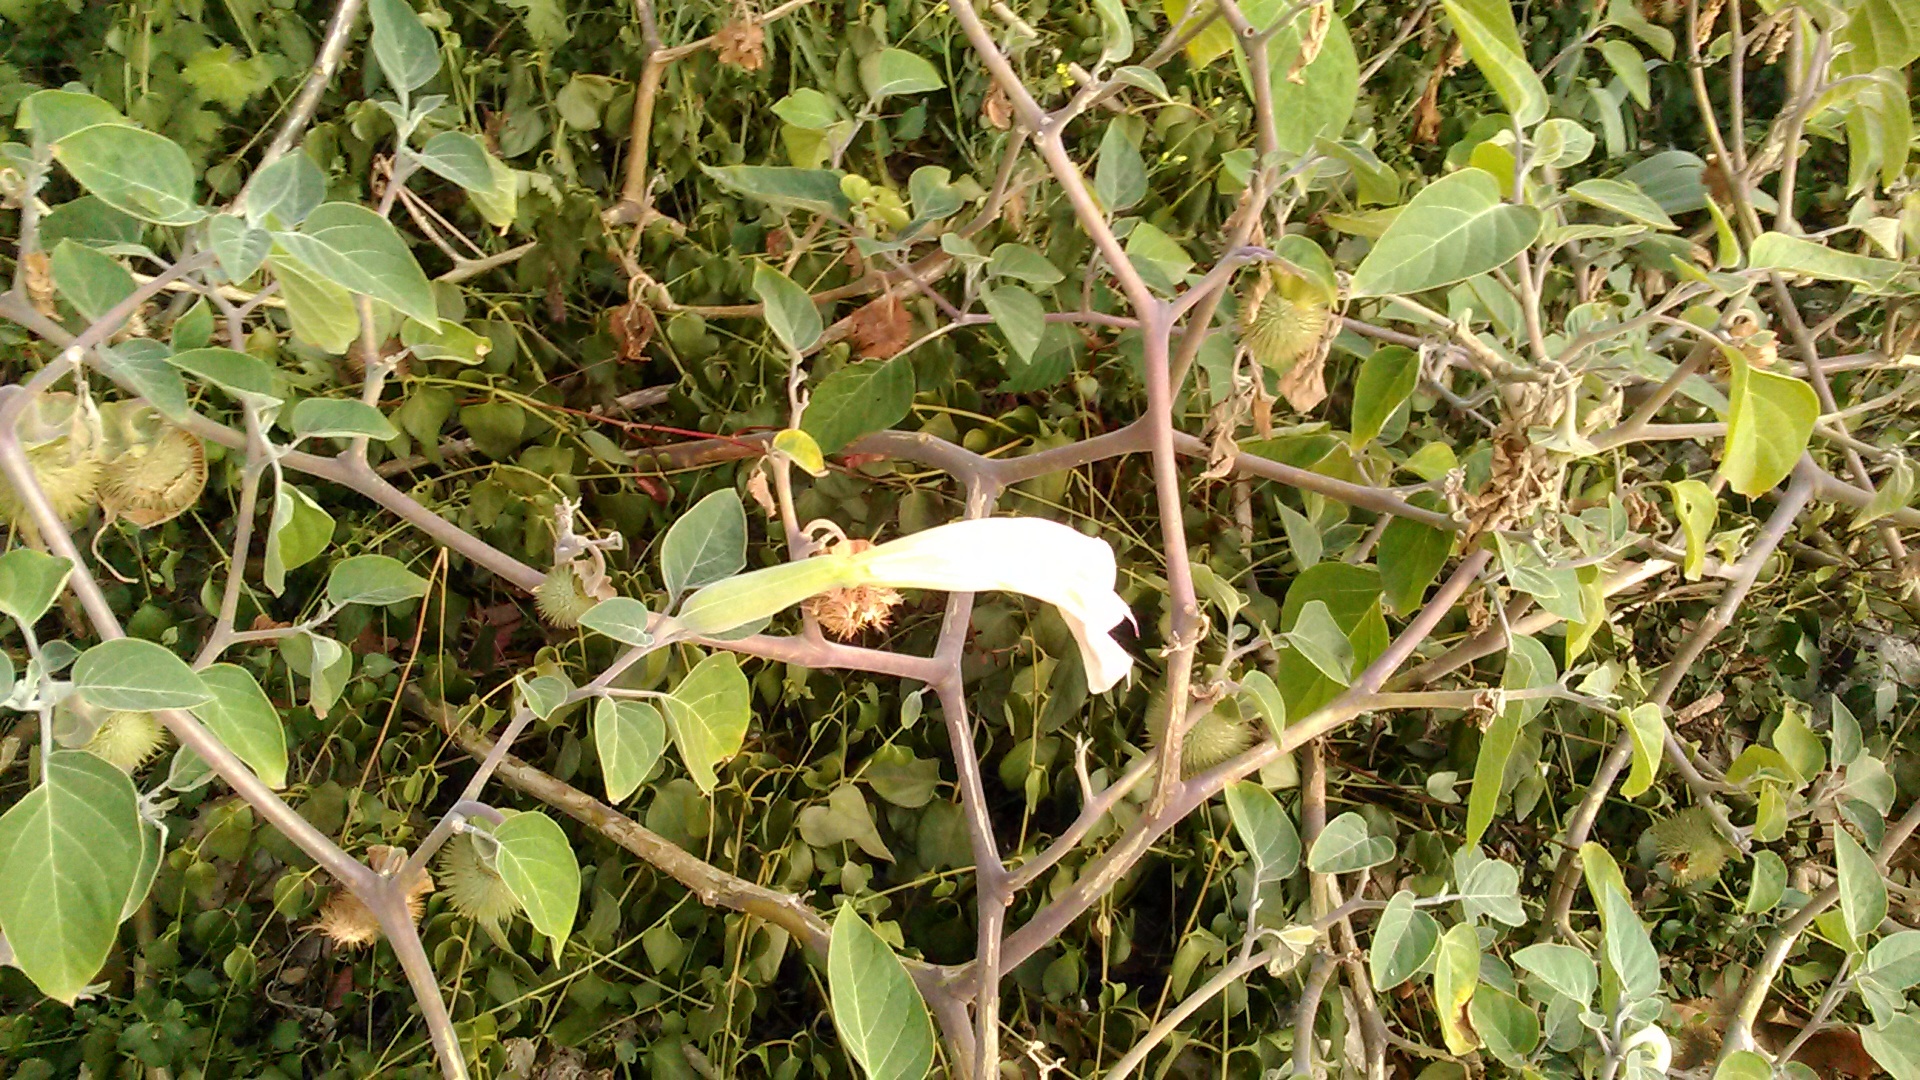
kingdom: Plantae
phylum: Tracheophyta
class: Magnoliopsida
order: Solanales
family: Solanaceae
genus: Datura
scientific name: Datura innoxia
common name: Downy thorn-apple
